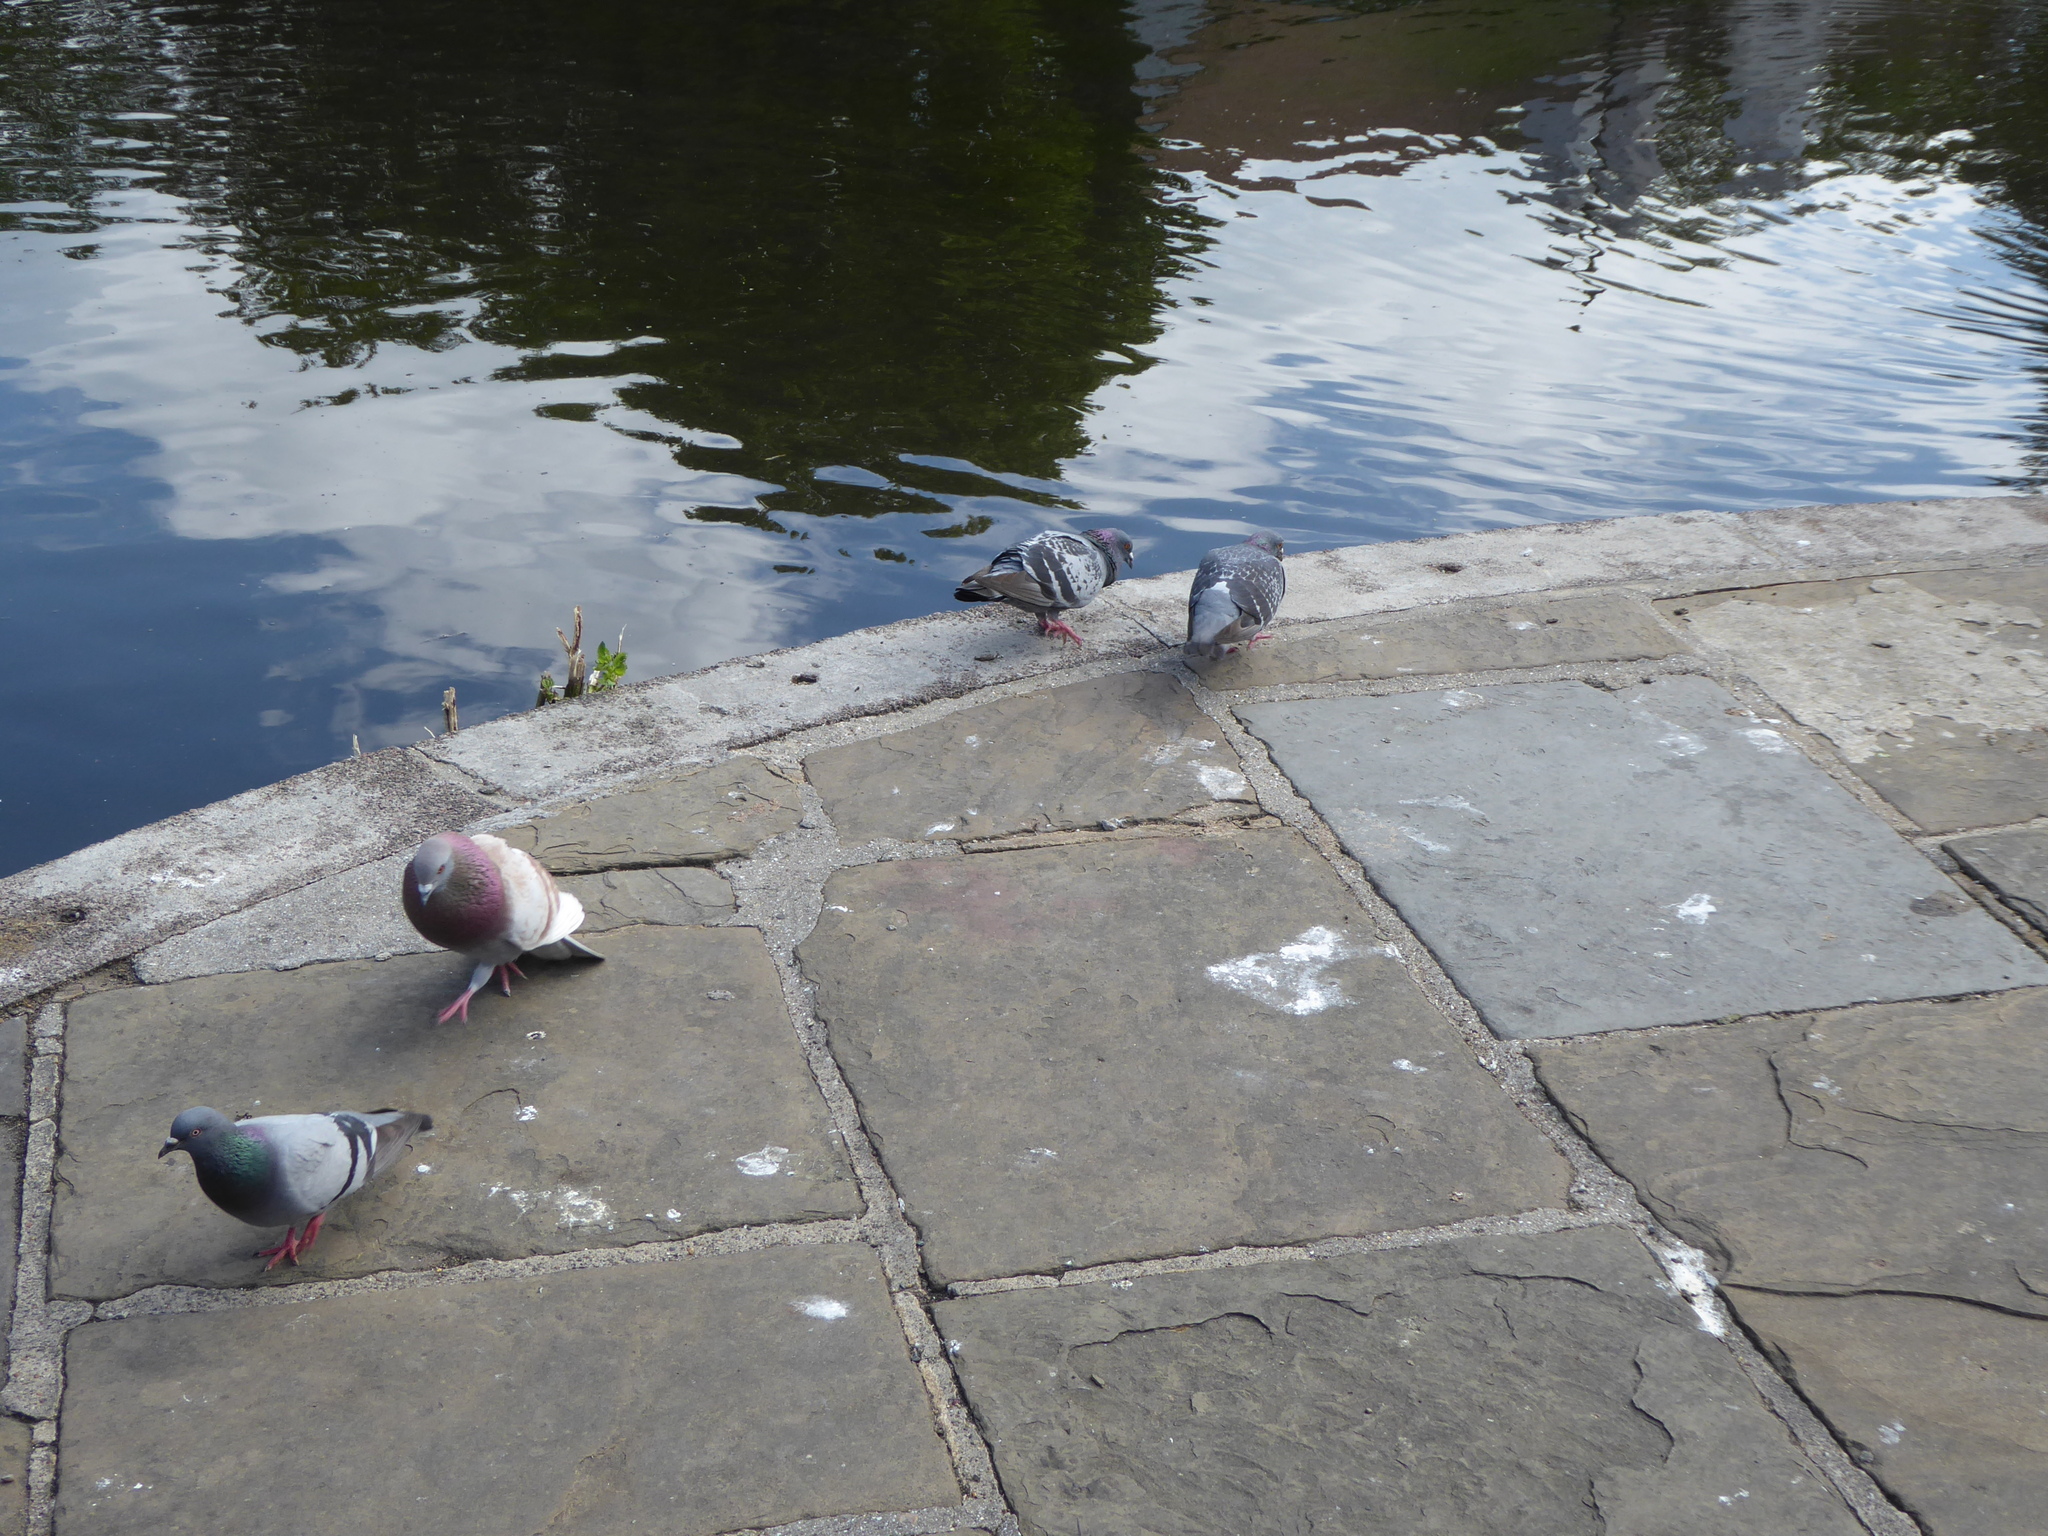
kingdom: Animalia
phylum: Chordata
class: Aves
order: Columbiformes
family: Columbidae
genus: Columba
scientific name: Columba livia
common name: Rock pigeon
